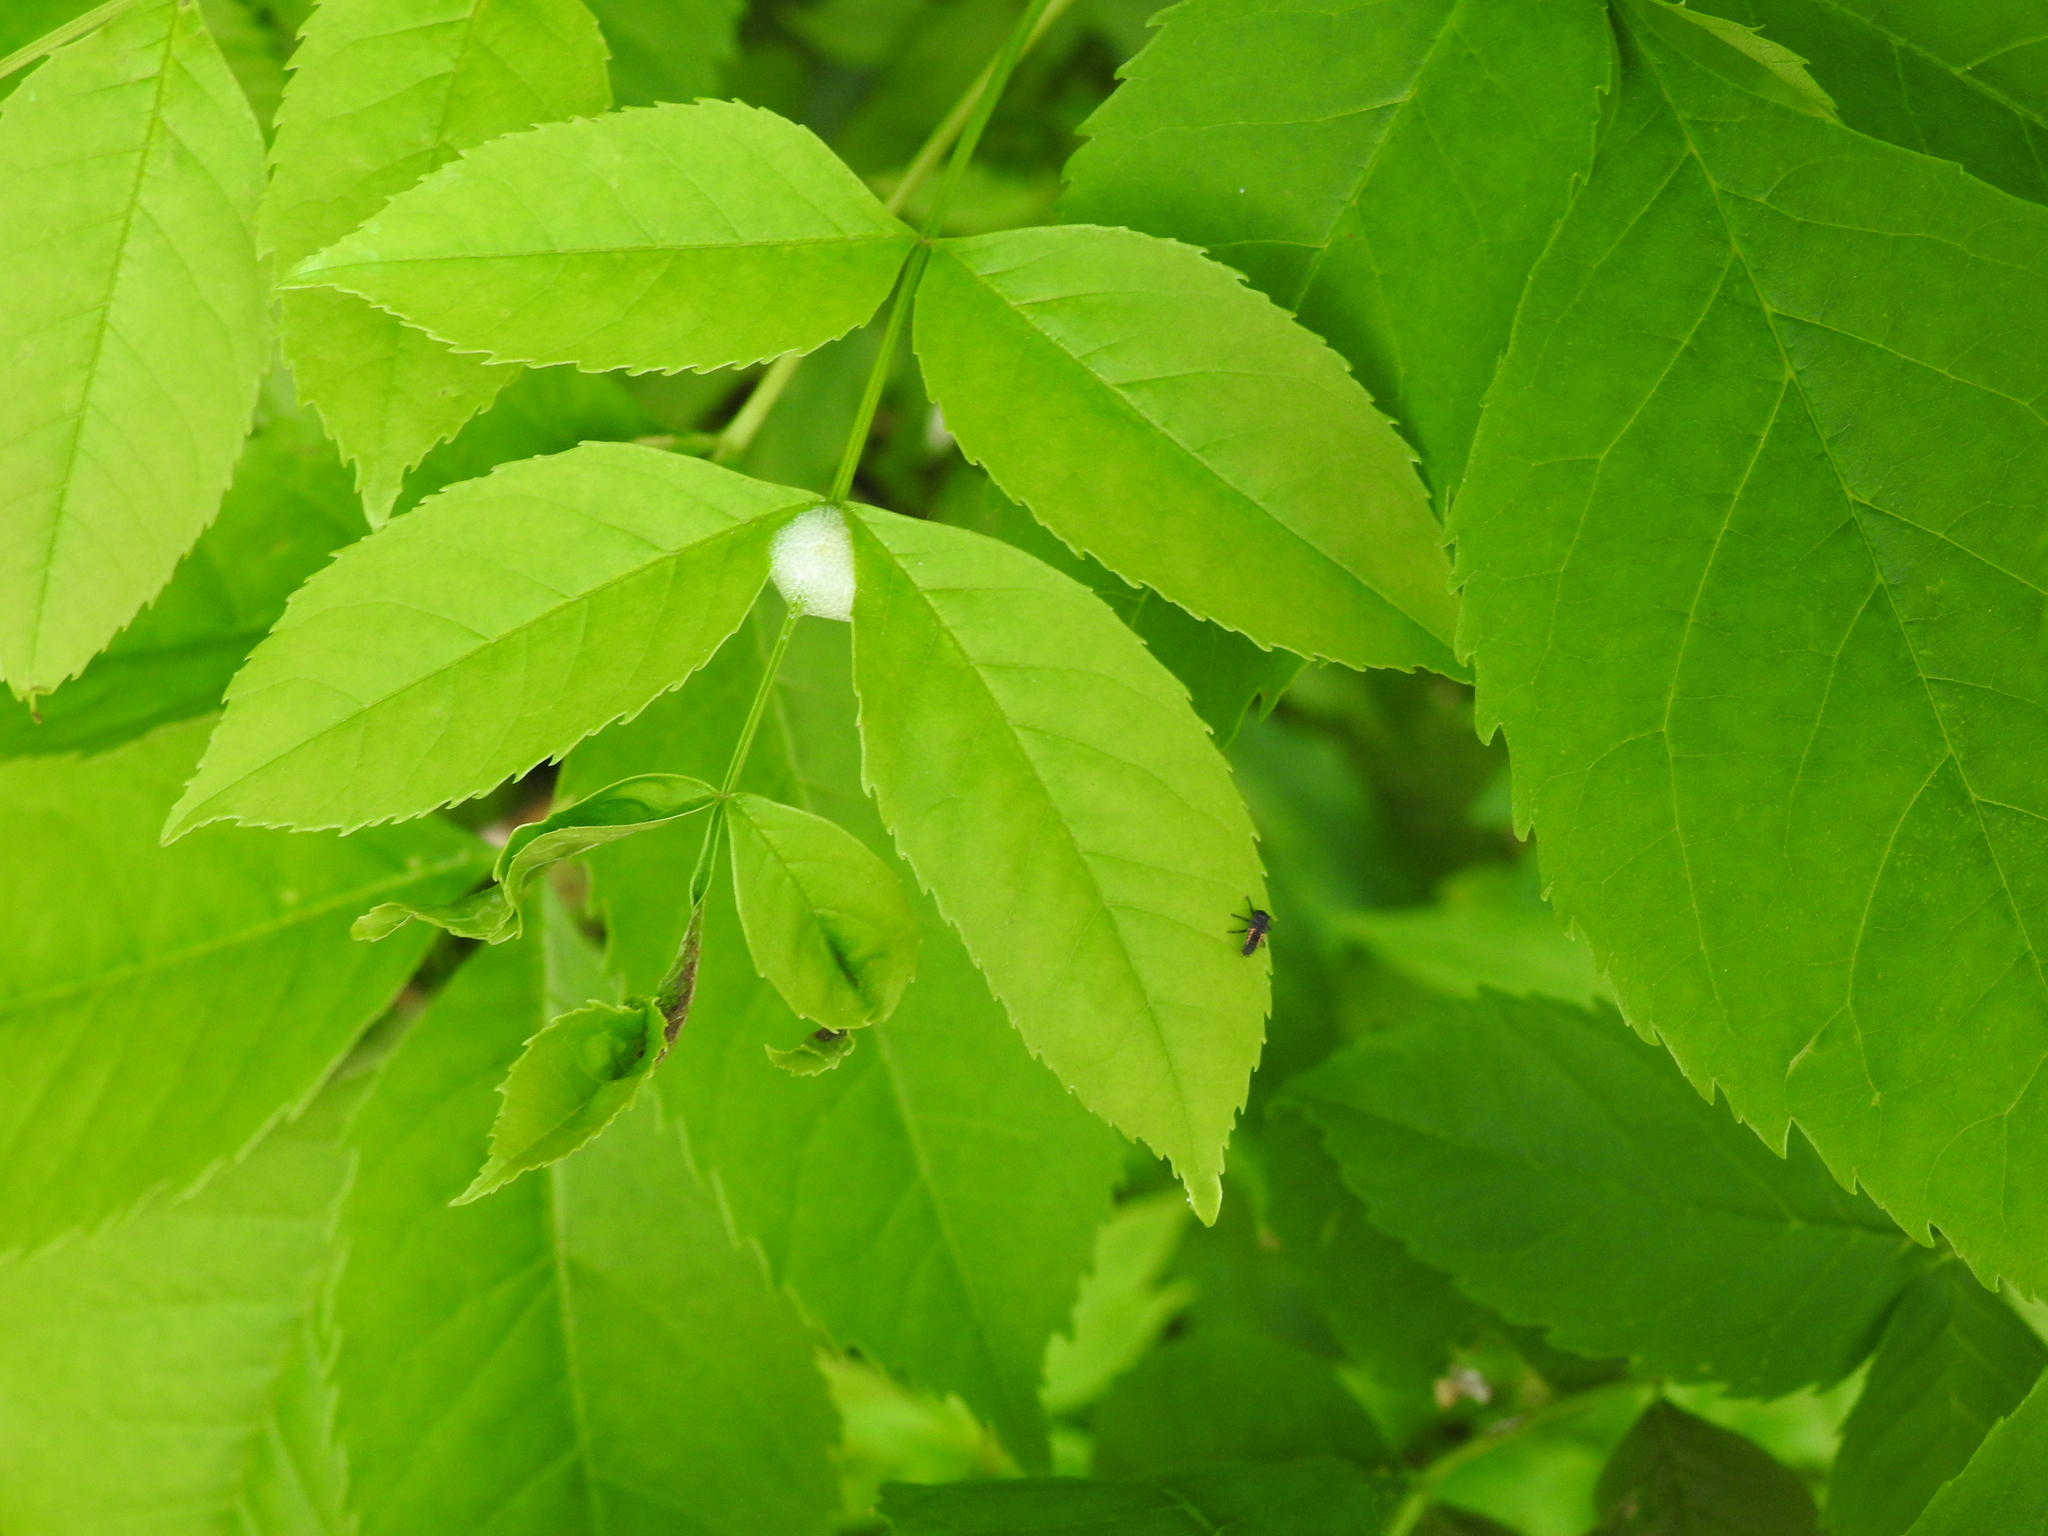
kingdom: Animalia
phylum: Arthropoda
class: Insecta
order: Coleoptera
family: Coccinellidae
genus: Harmonia
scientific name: Harmonia axyridis
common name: Harlequin ladybird
